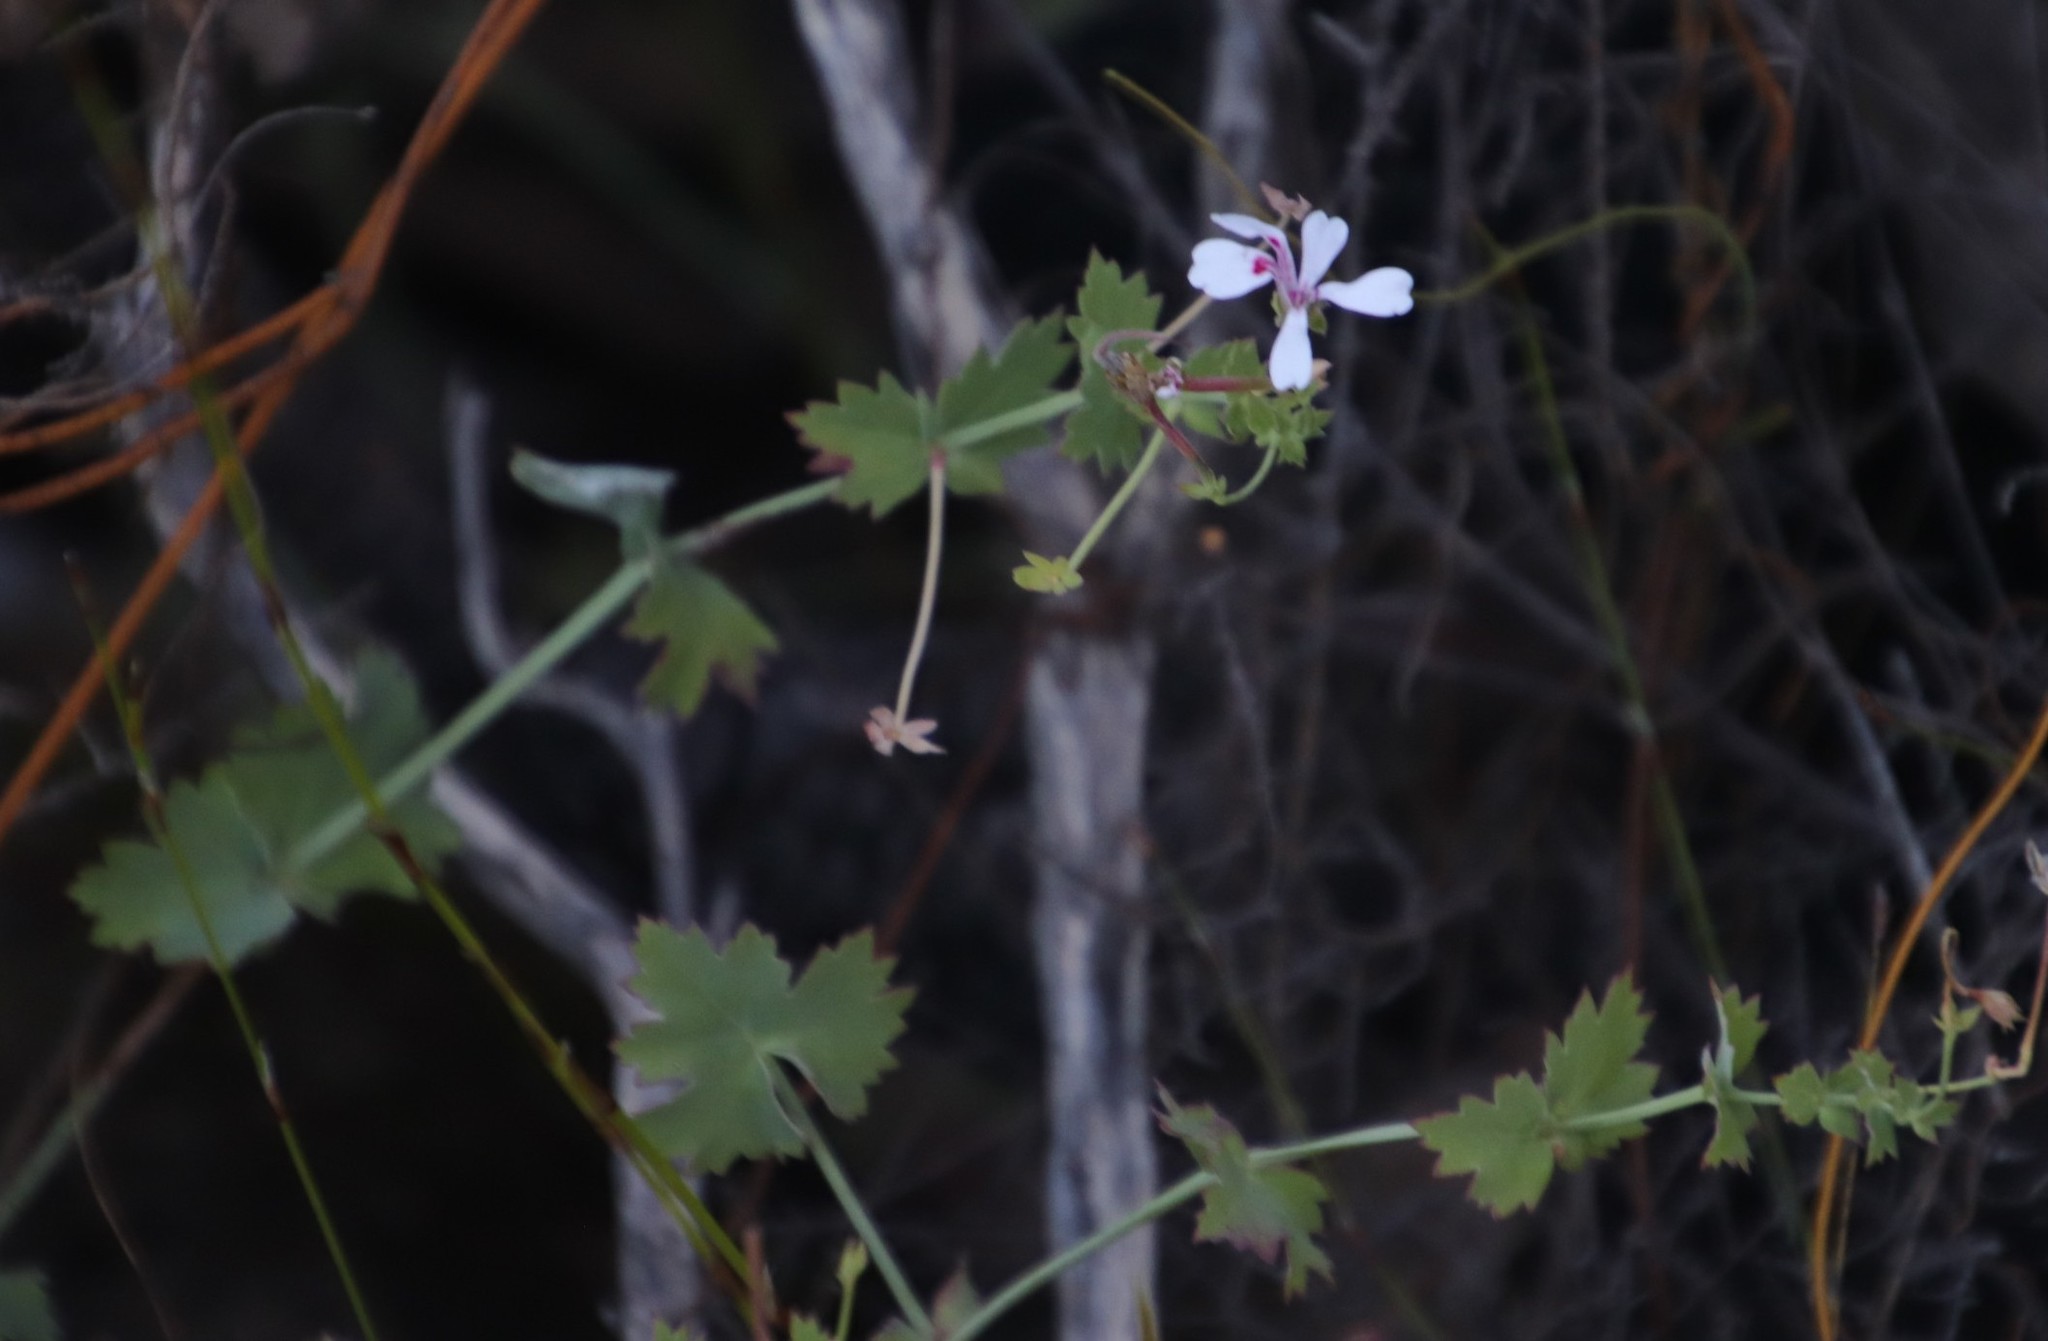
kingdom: Plantae
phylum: Tracheophyta
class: Magnoliopsida
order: Geraniales
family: Geraniaceae
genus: Pelargonium
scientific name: Pelargonium patulum
